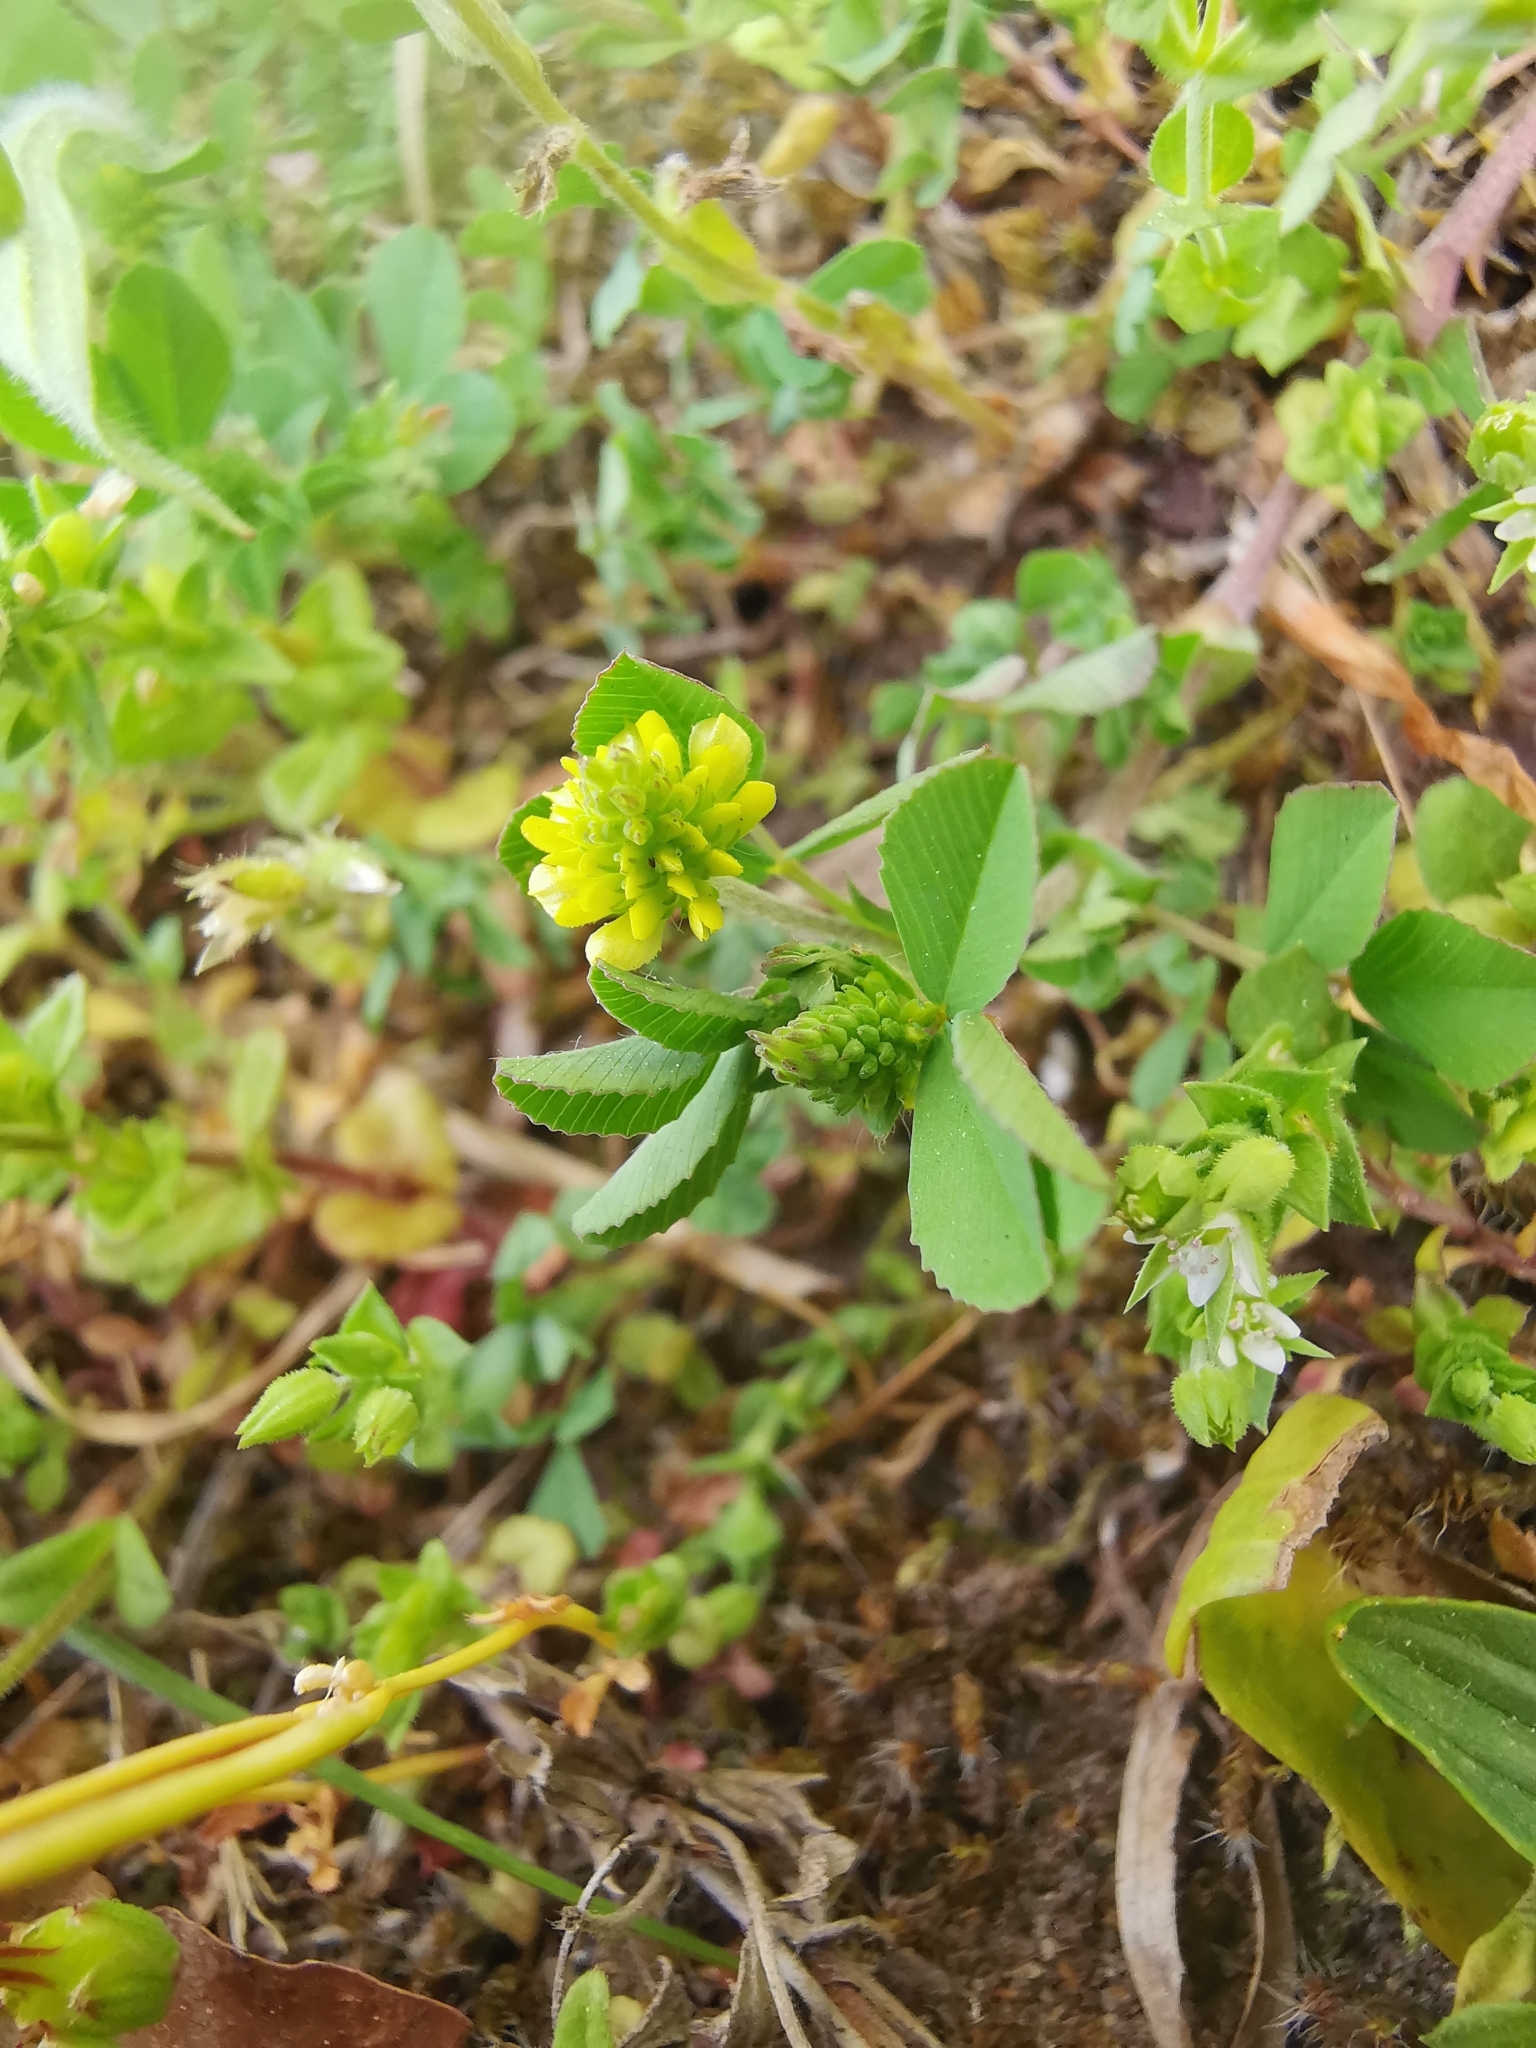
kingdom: Plantae
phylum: Tracheophyta
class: Magnoliopsida
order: Fabales
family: Fabaceae
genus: Trifolium
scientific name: Trifolium campestre
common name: Field clover
